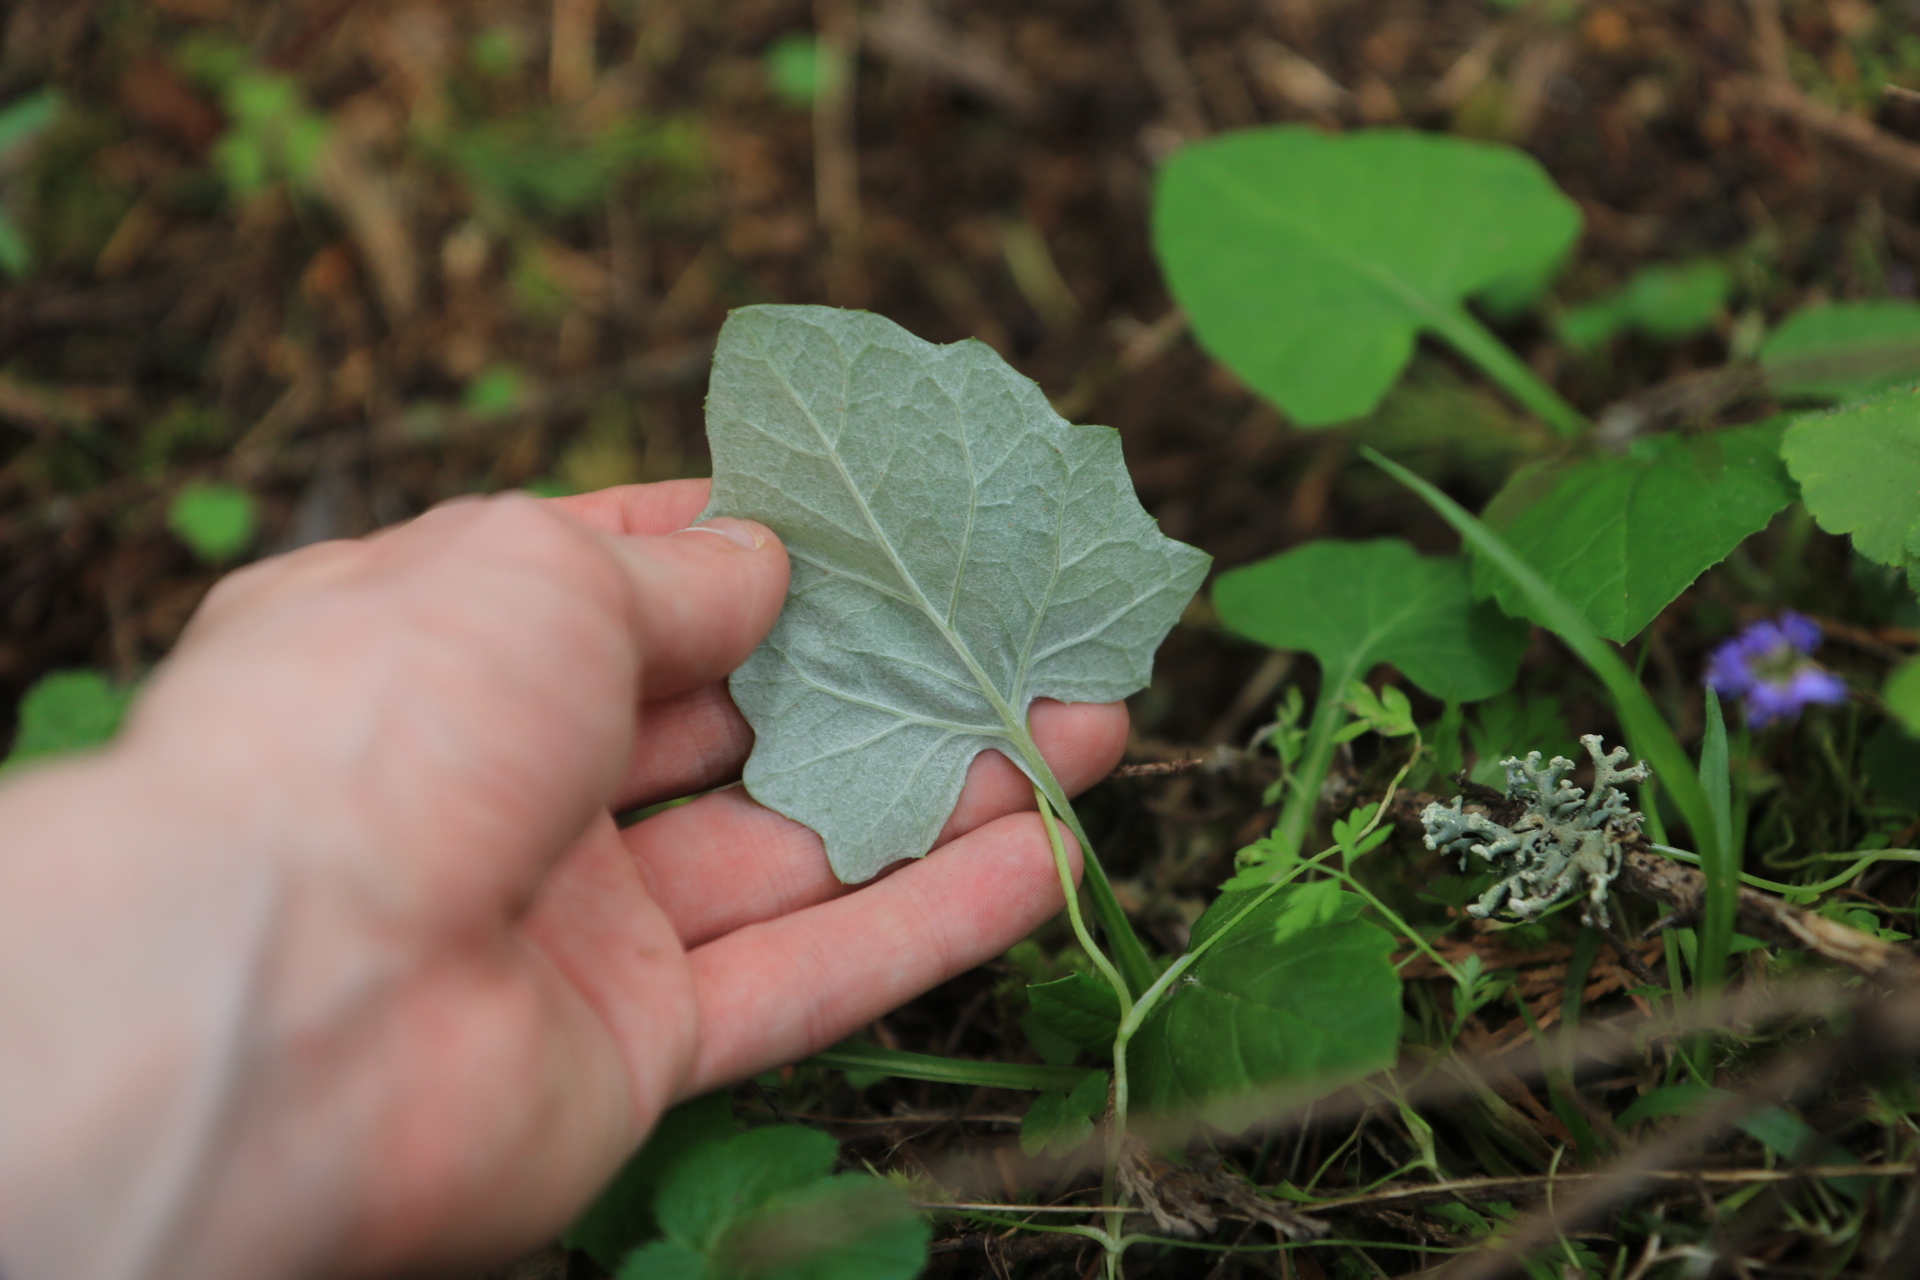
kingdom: Plantae
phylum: Tracheophyta
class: Magnoliopsida
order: Asterales
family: Asteraceae
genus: Adenocaulon
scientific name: Adenocaulon bicolor
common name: Trailplant
